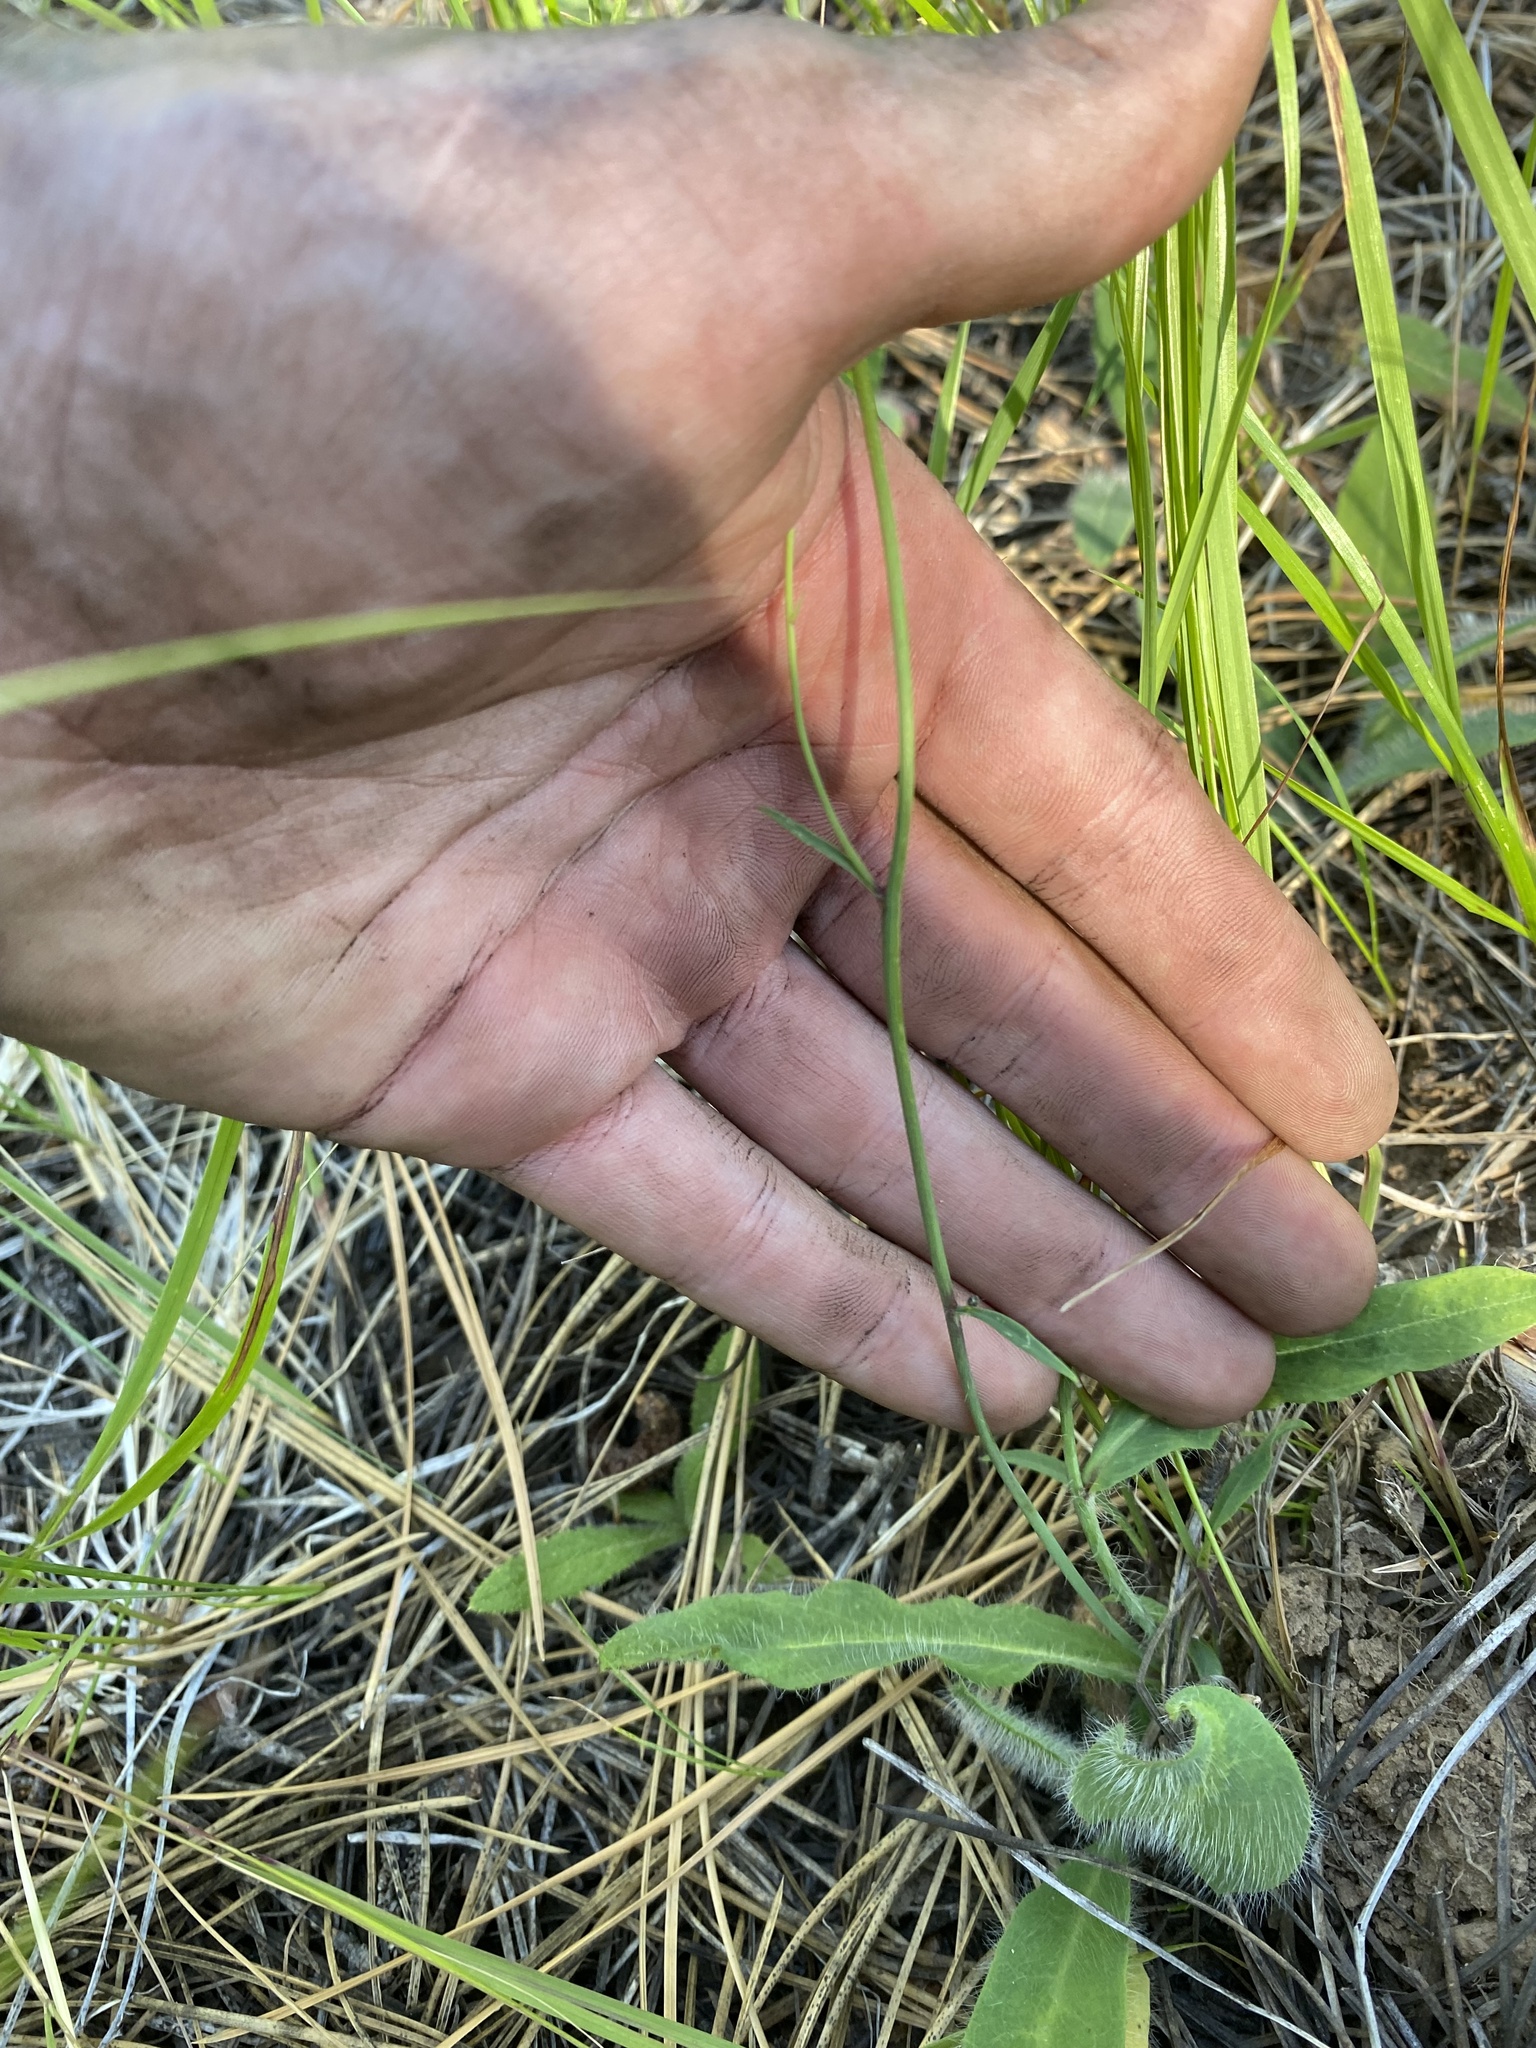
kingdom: Plantae
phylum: Tracheophyta
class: Magnoliopsida
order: Asterales
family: Asteraceae
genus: Hieracium
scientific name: Hieracium albiflorum
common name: White hawkweed
